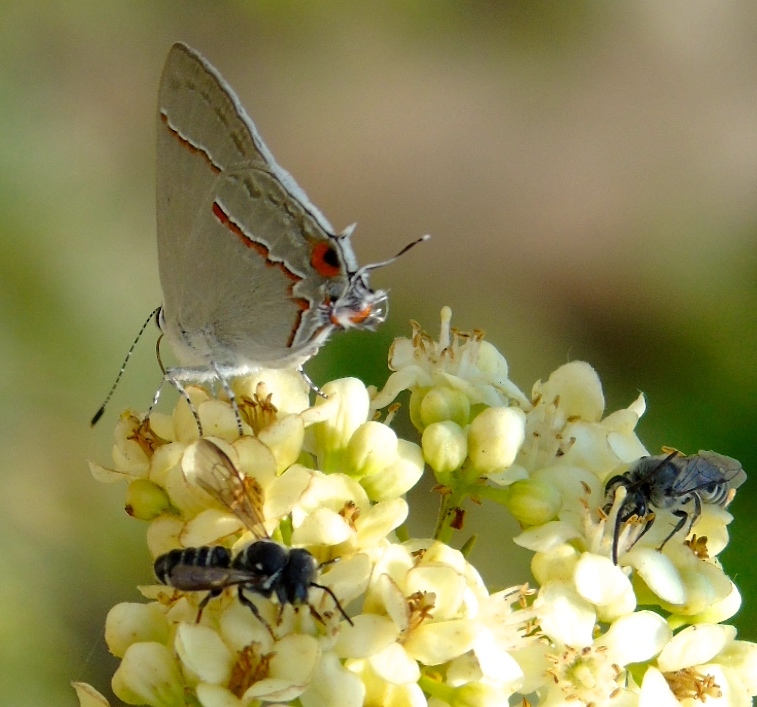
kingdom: Animalia
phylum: Arthropoda
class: Insecta
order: Lepidoptera
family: Lycaenidae
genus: Thecla
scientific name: Thecla serapio
